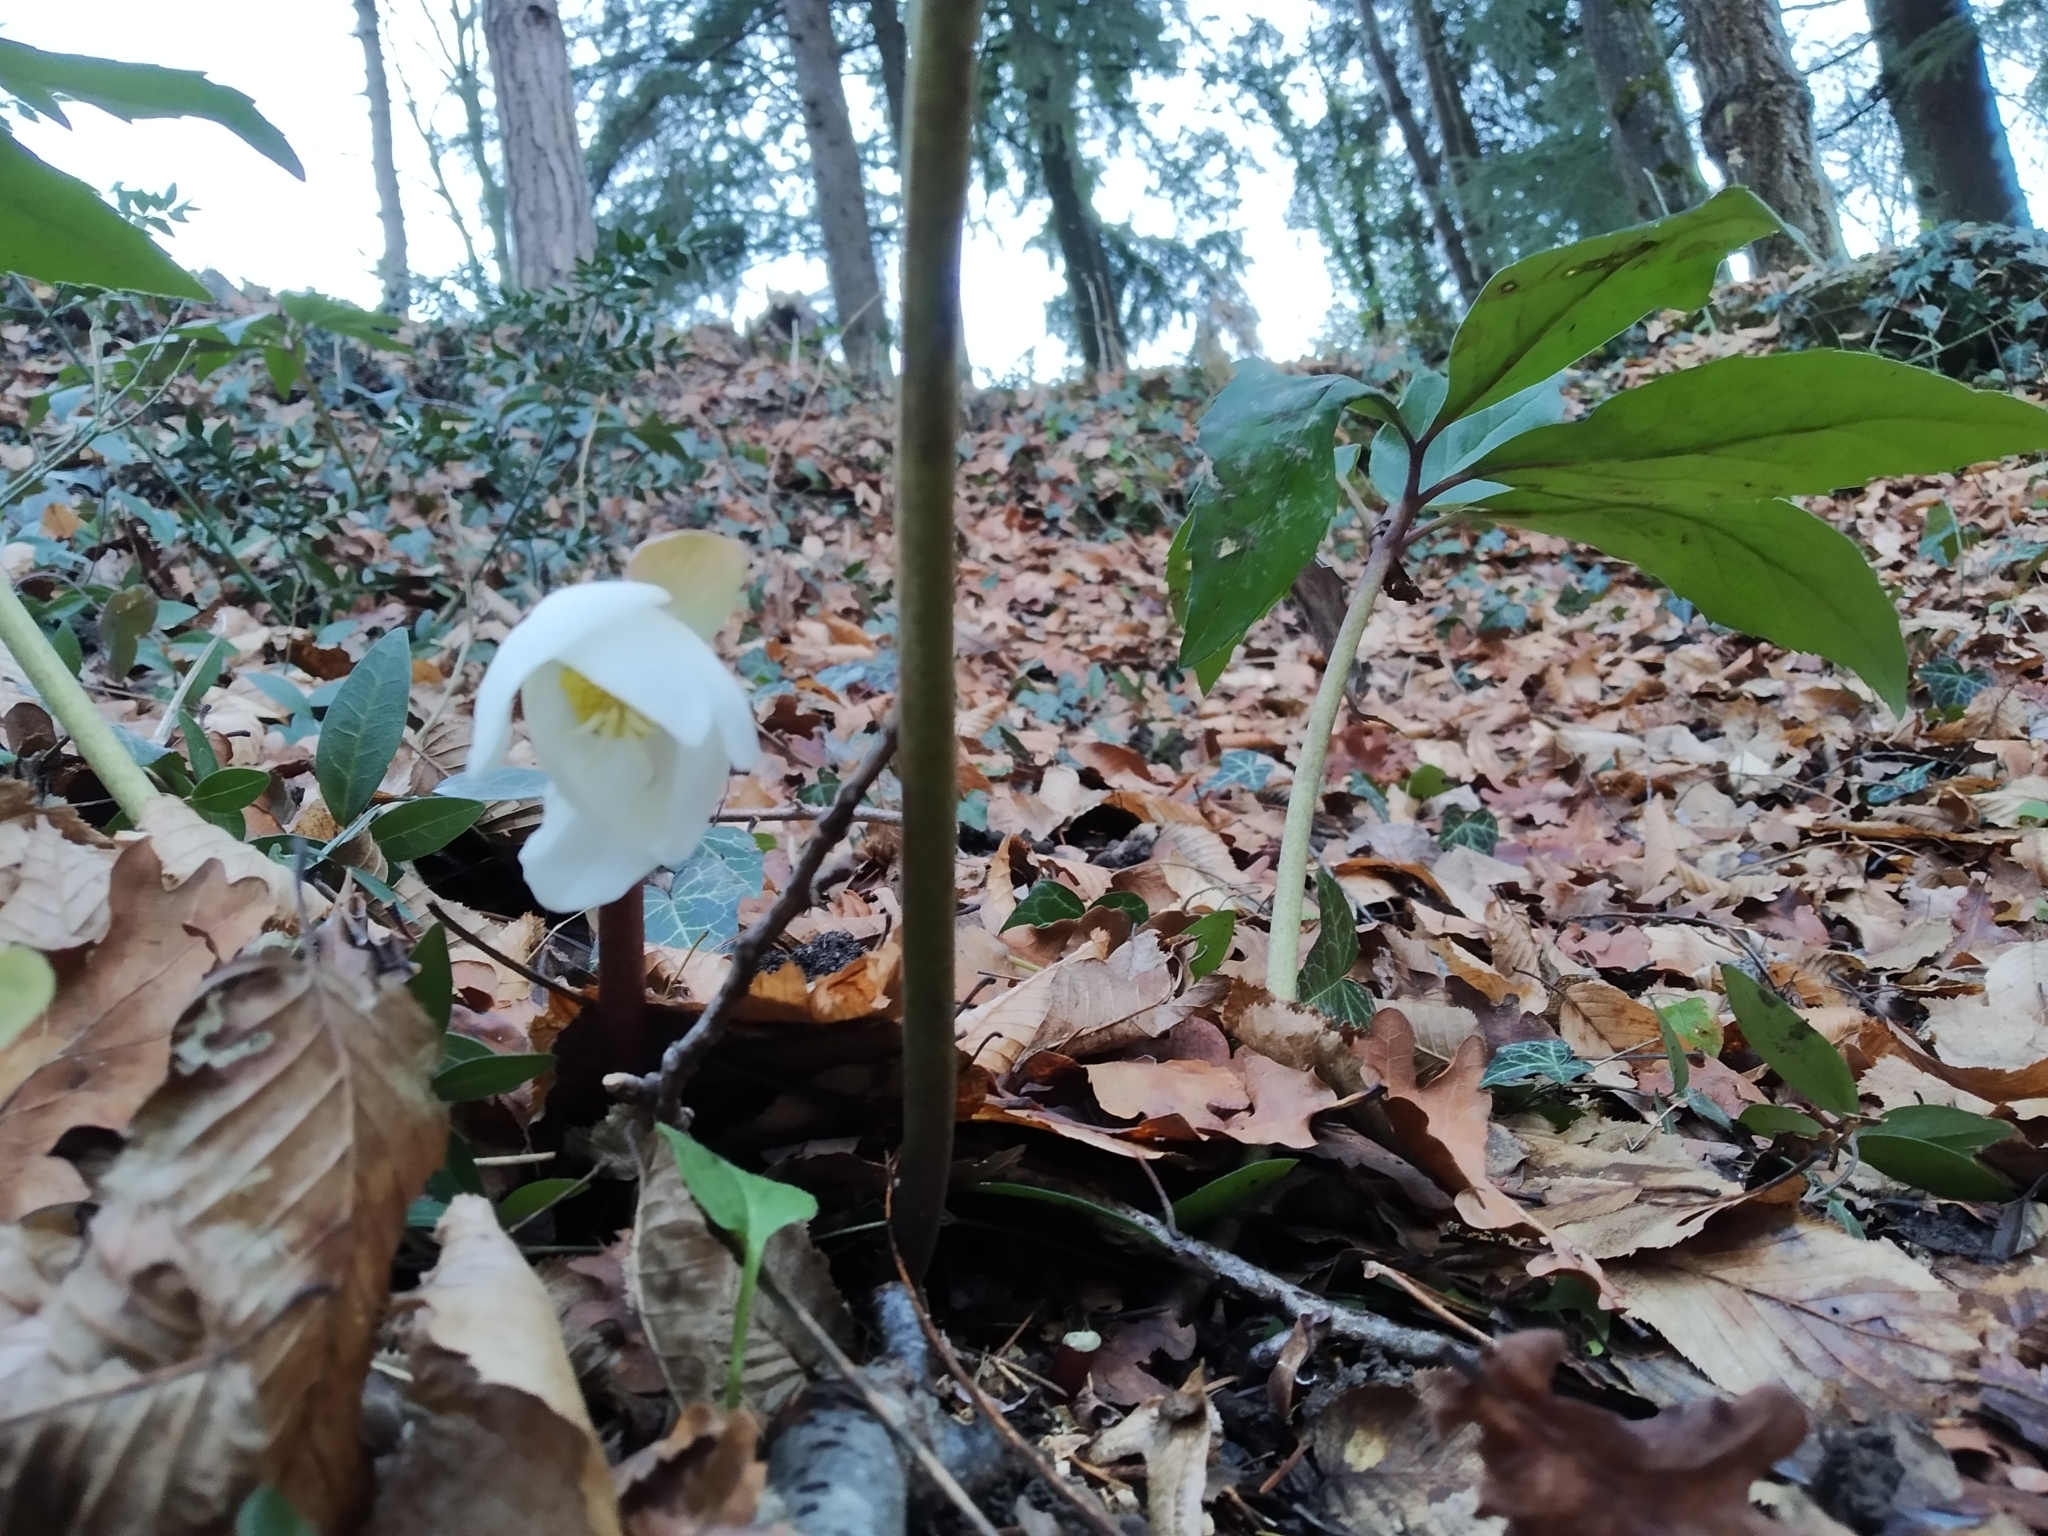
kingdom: Plantae
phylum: Tracheophyta
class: Magnoliopsida
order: Ranunculales
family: Ranunculaceae
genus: Helleborus
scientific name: Helleborus niger
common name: Black hellebore
